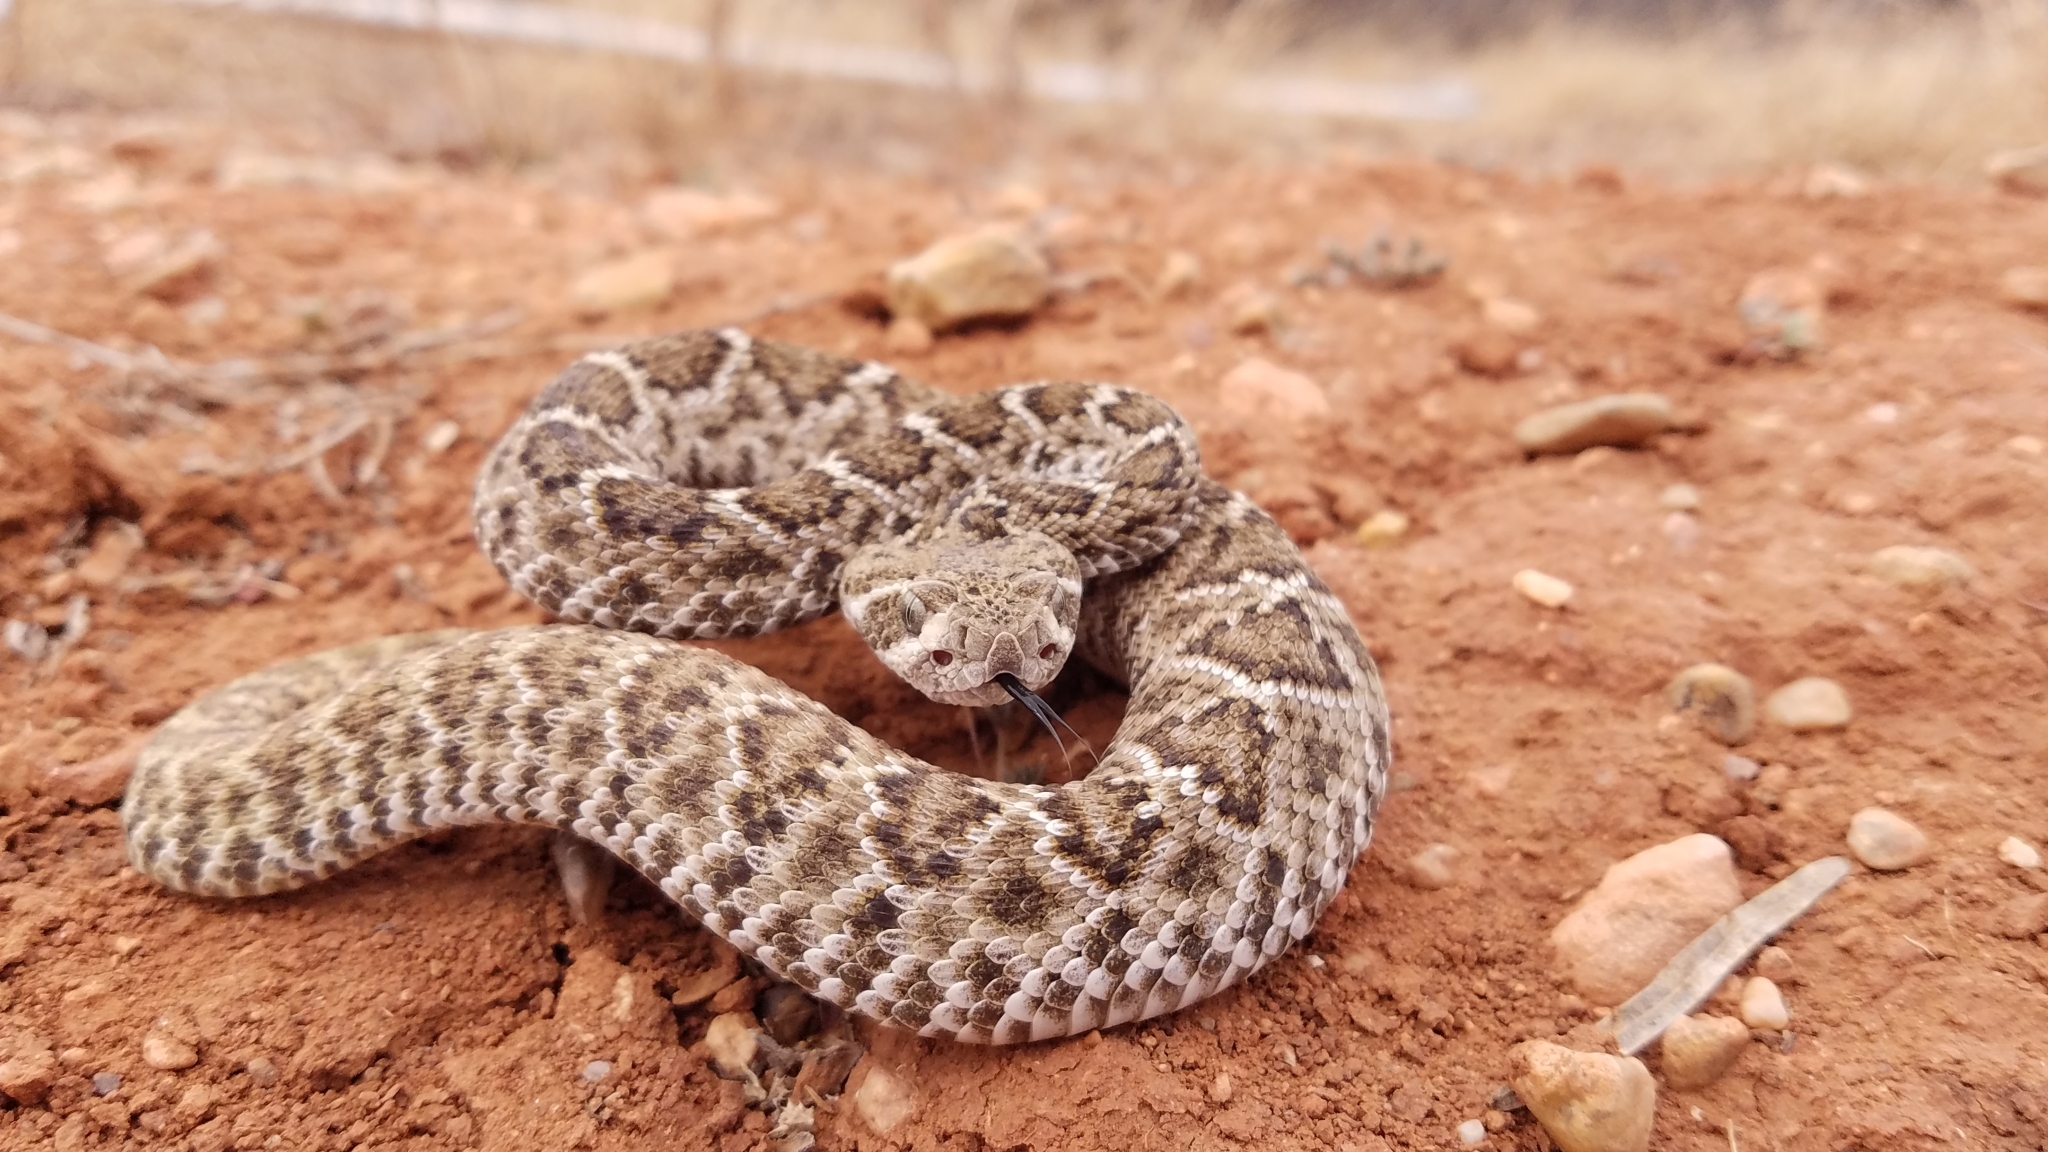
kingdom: Animalia
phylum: Chordata
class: Squamata
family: Viperidae
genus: Crotalus
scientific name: Crotalus atrox
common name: Western diamond-backed rattlesnake
